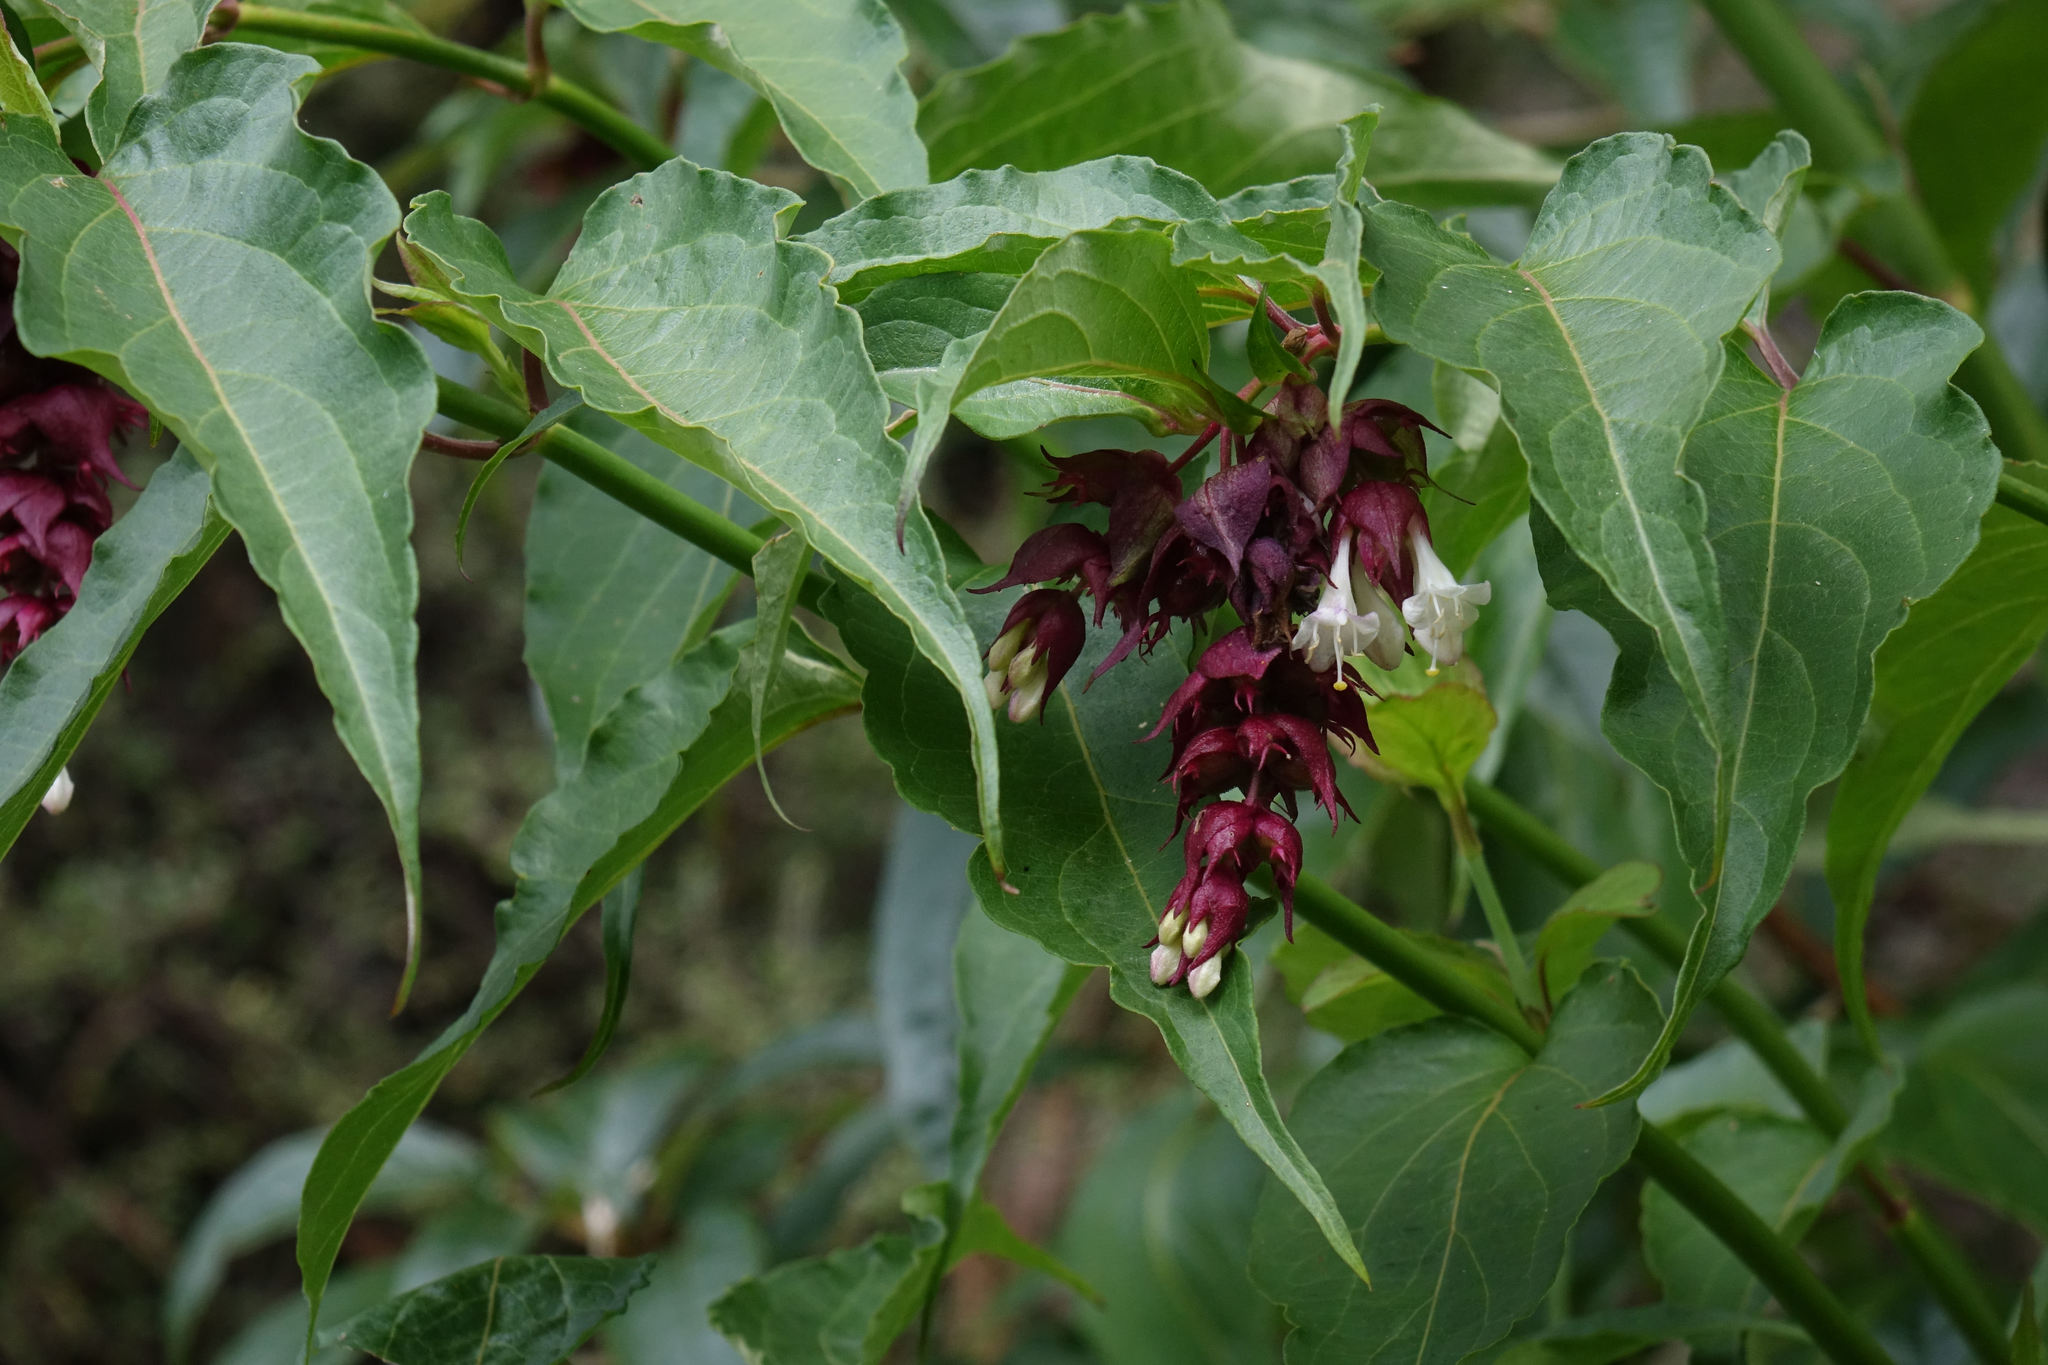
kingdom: Plantae
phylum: Tracheophyta
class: Magnoliopsida
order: Dipsacales
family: Caprifoliaceae
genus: Leycesteria
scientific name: Leycesteria formosa
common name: Himalayan honeysuckle
